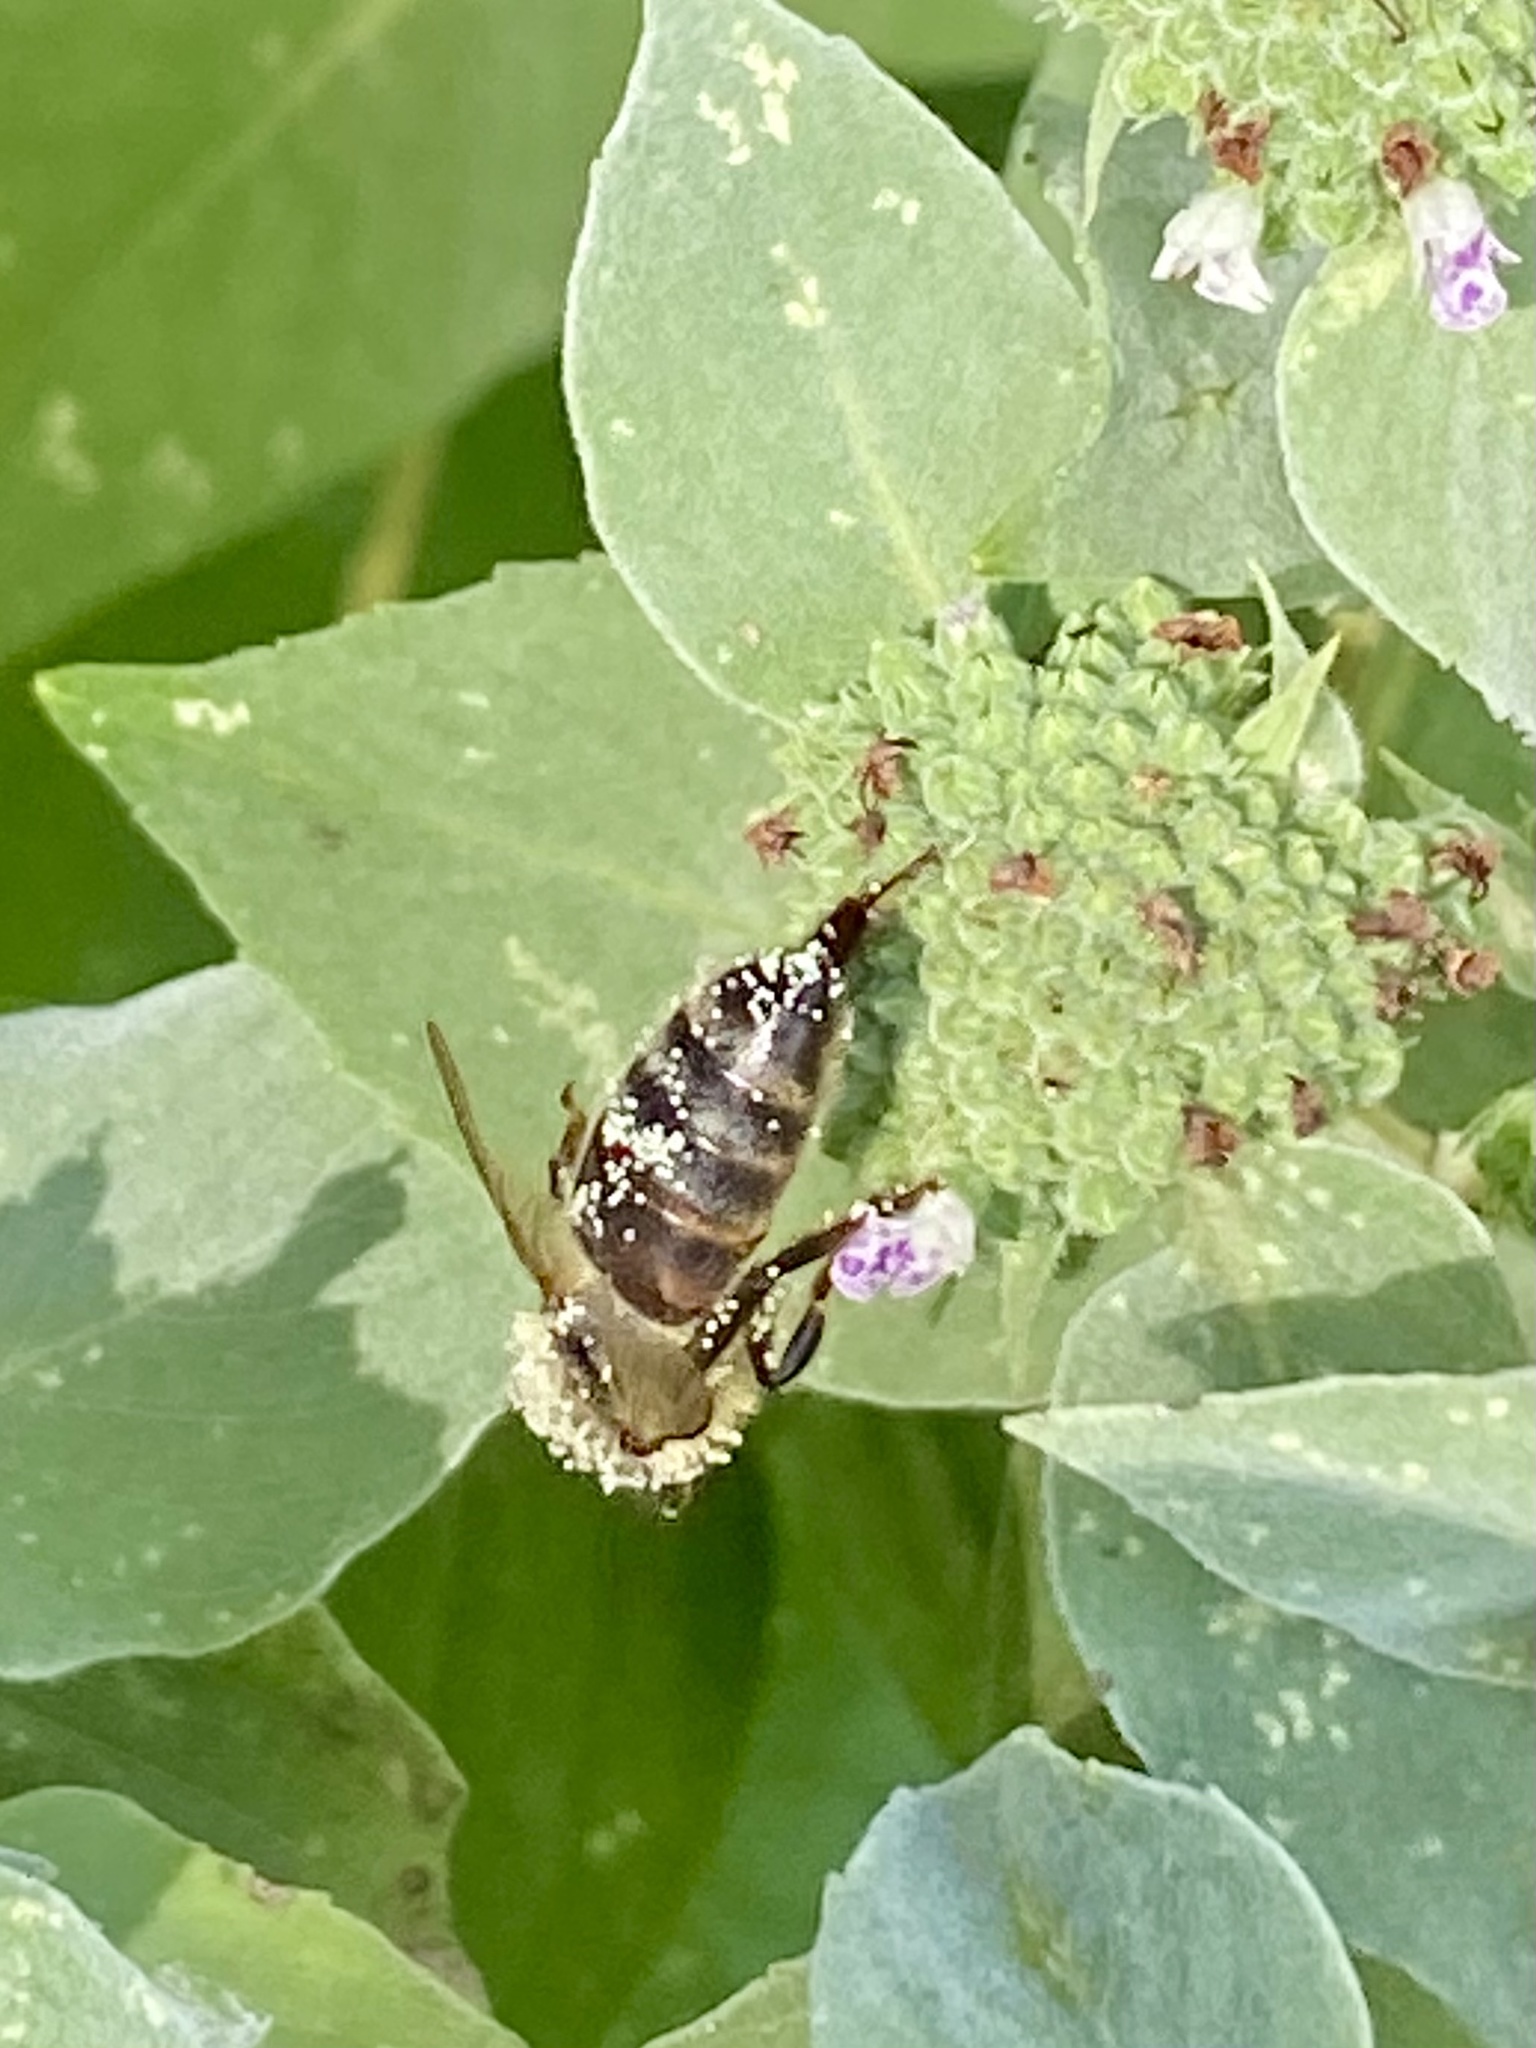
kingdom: Animalia
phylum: Arthropoda
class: Insecta
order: Hymenoptera
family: Apidae
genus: Apis
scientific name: Apis mellifera
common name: Honey bee
